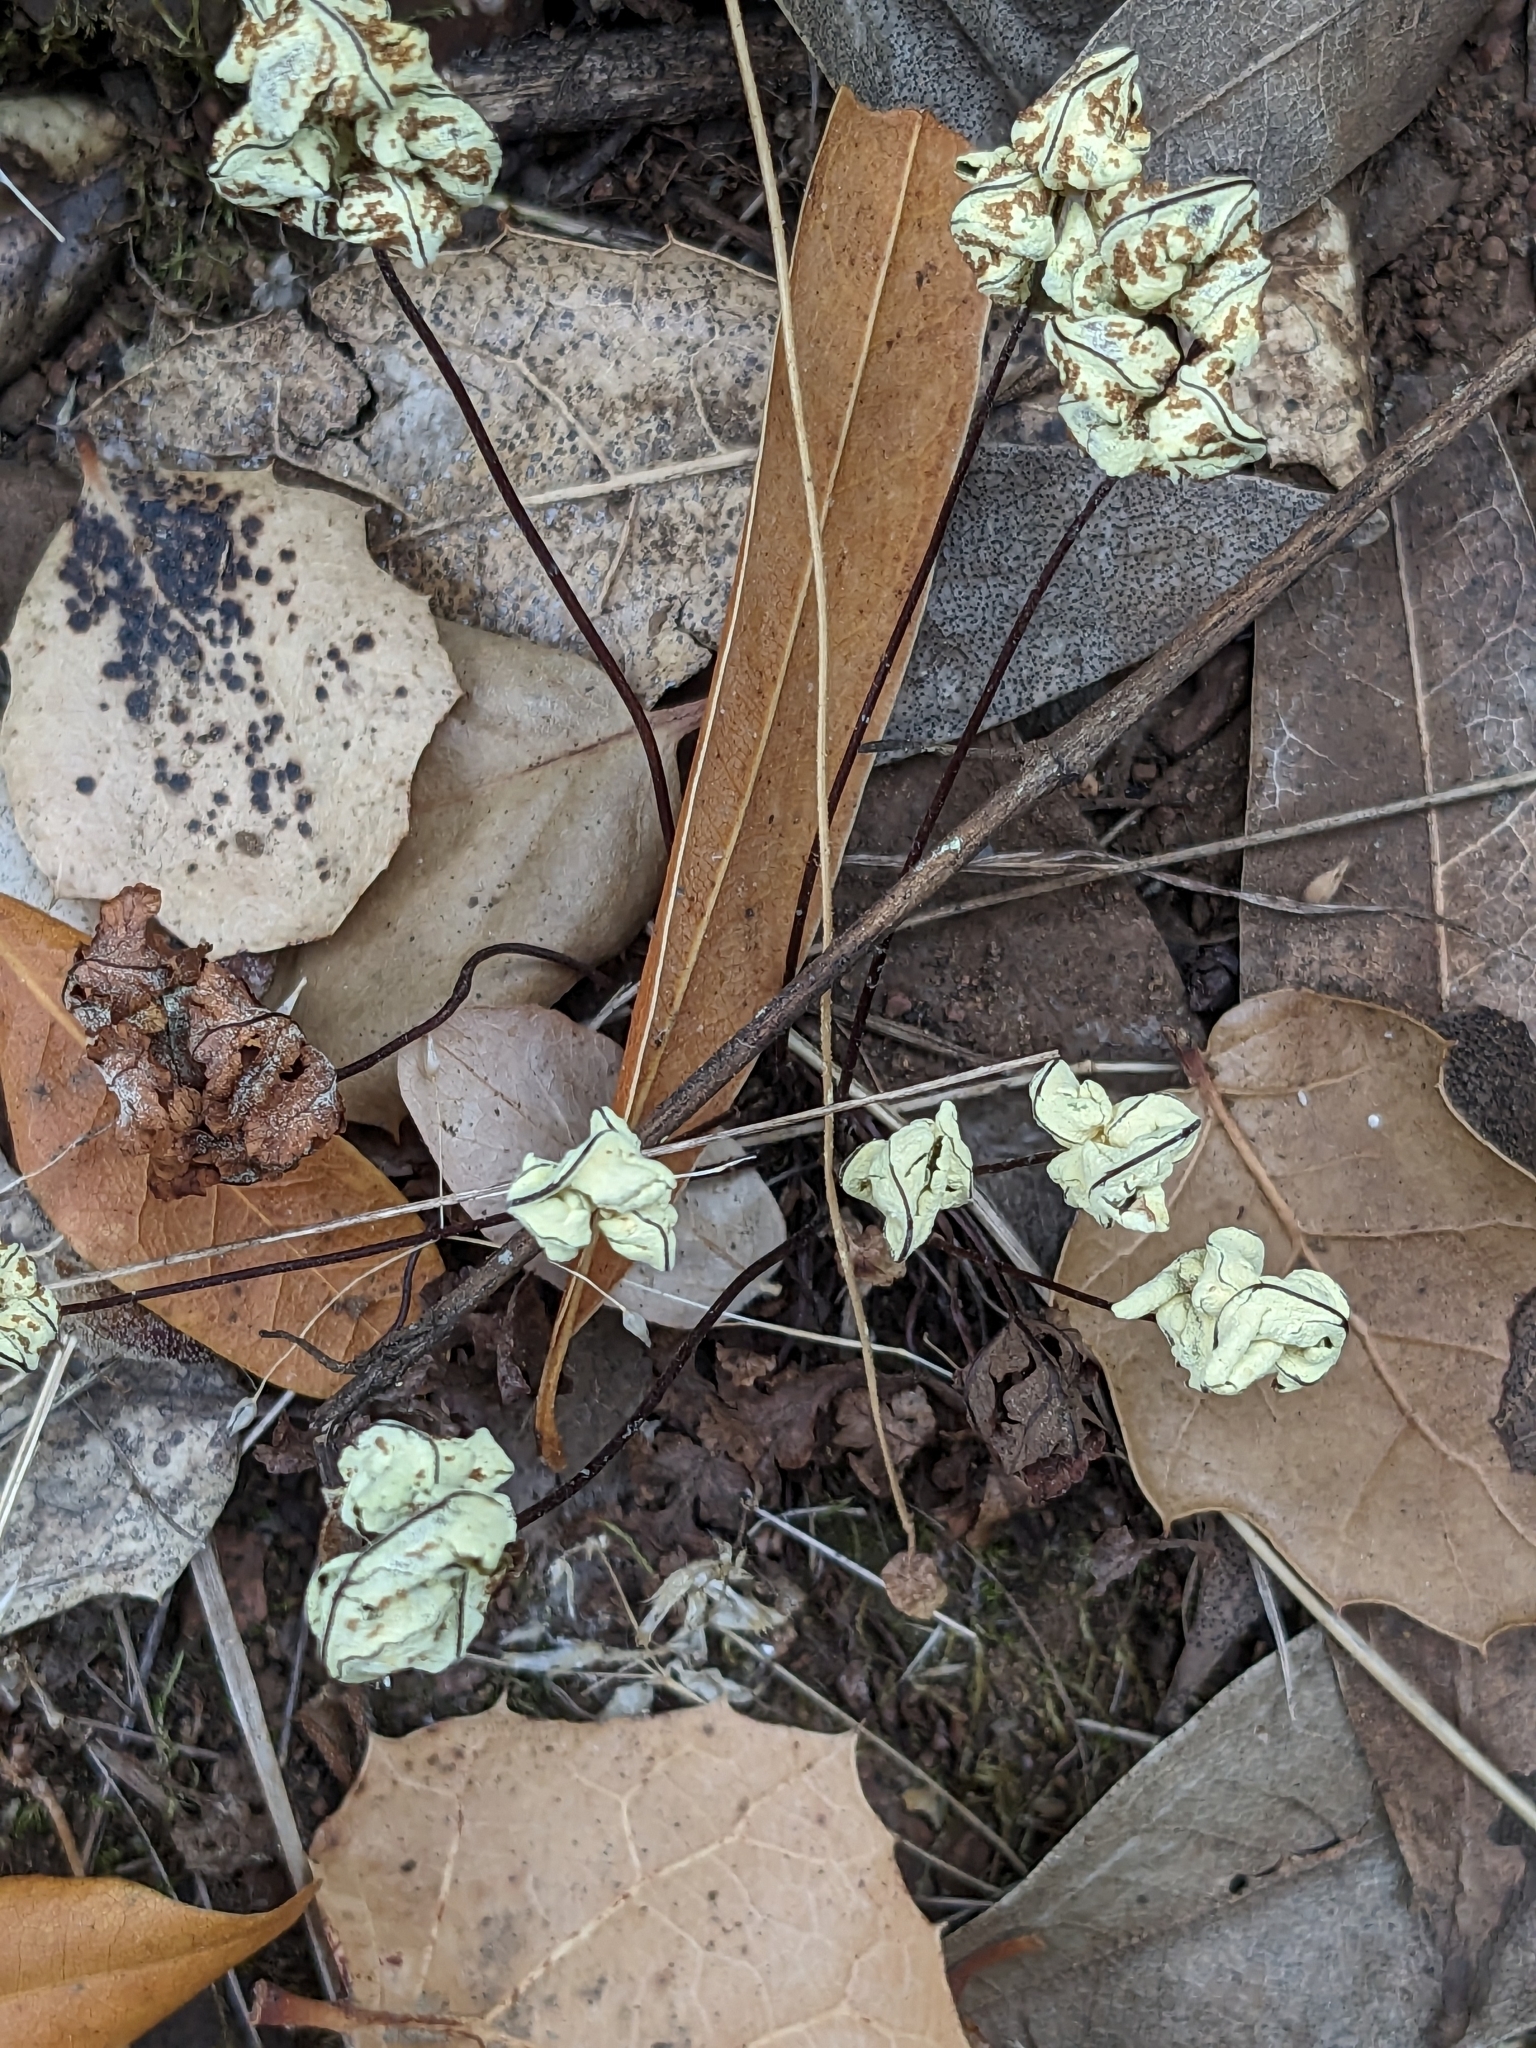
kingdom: Plantae
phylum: Tracheophyta
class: Polypodiopsida
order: Polypodiales
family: Pteridaceae
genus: Pentagramma
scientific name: Pentagramma triangularis
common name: Gold fern
